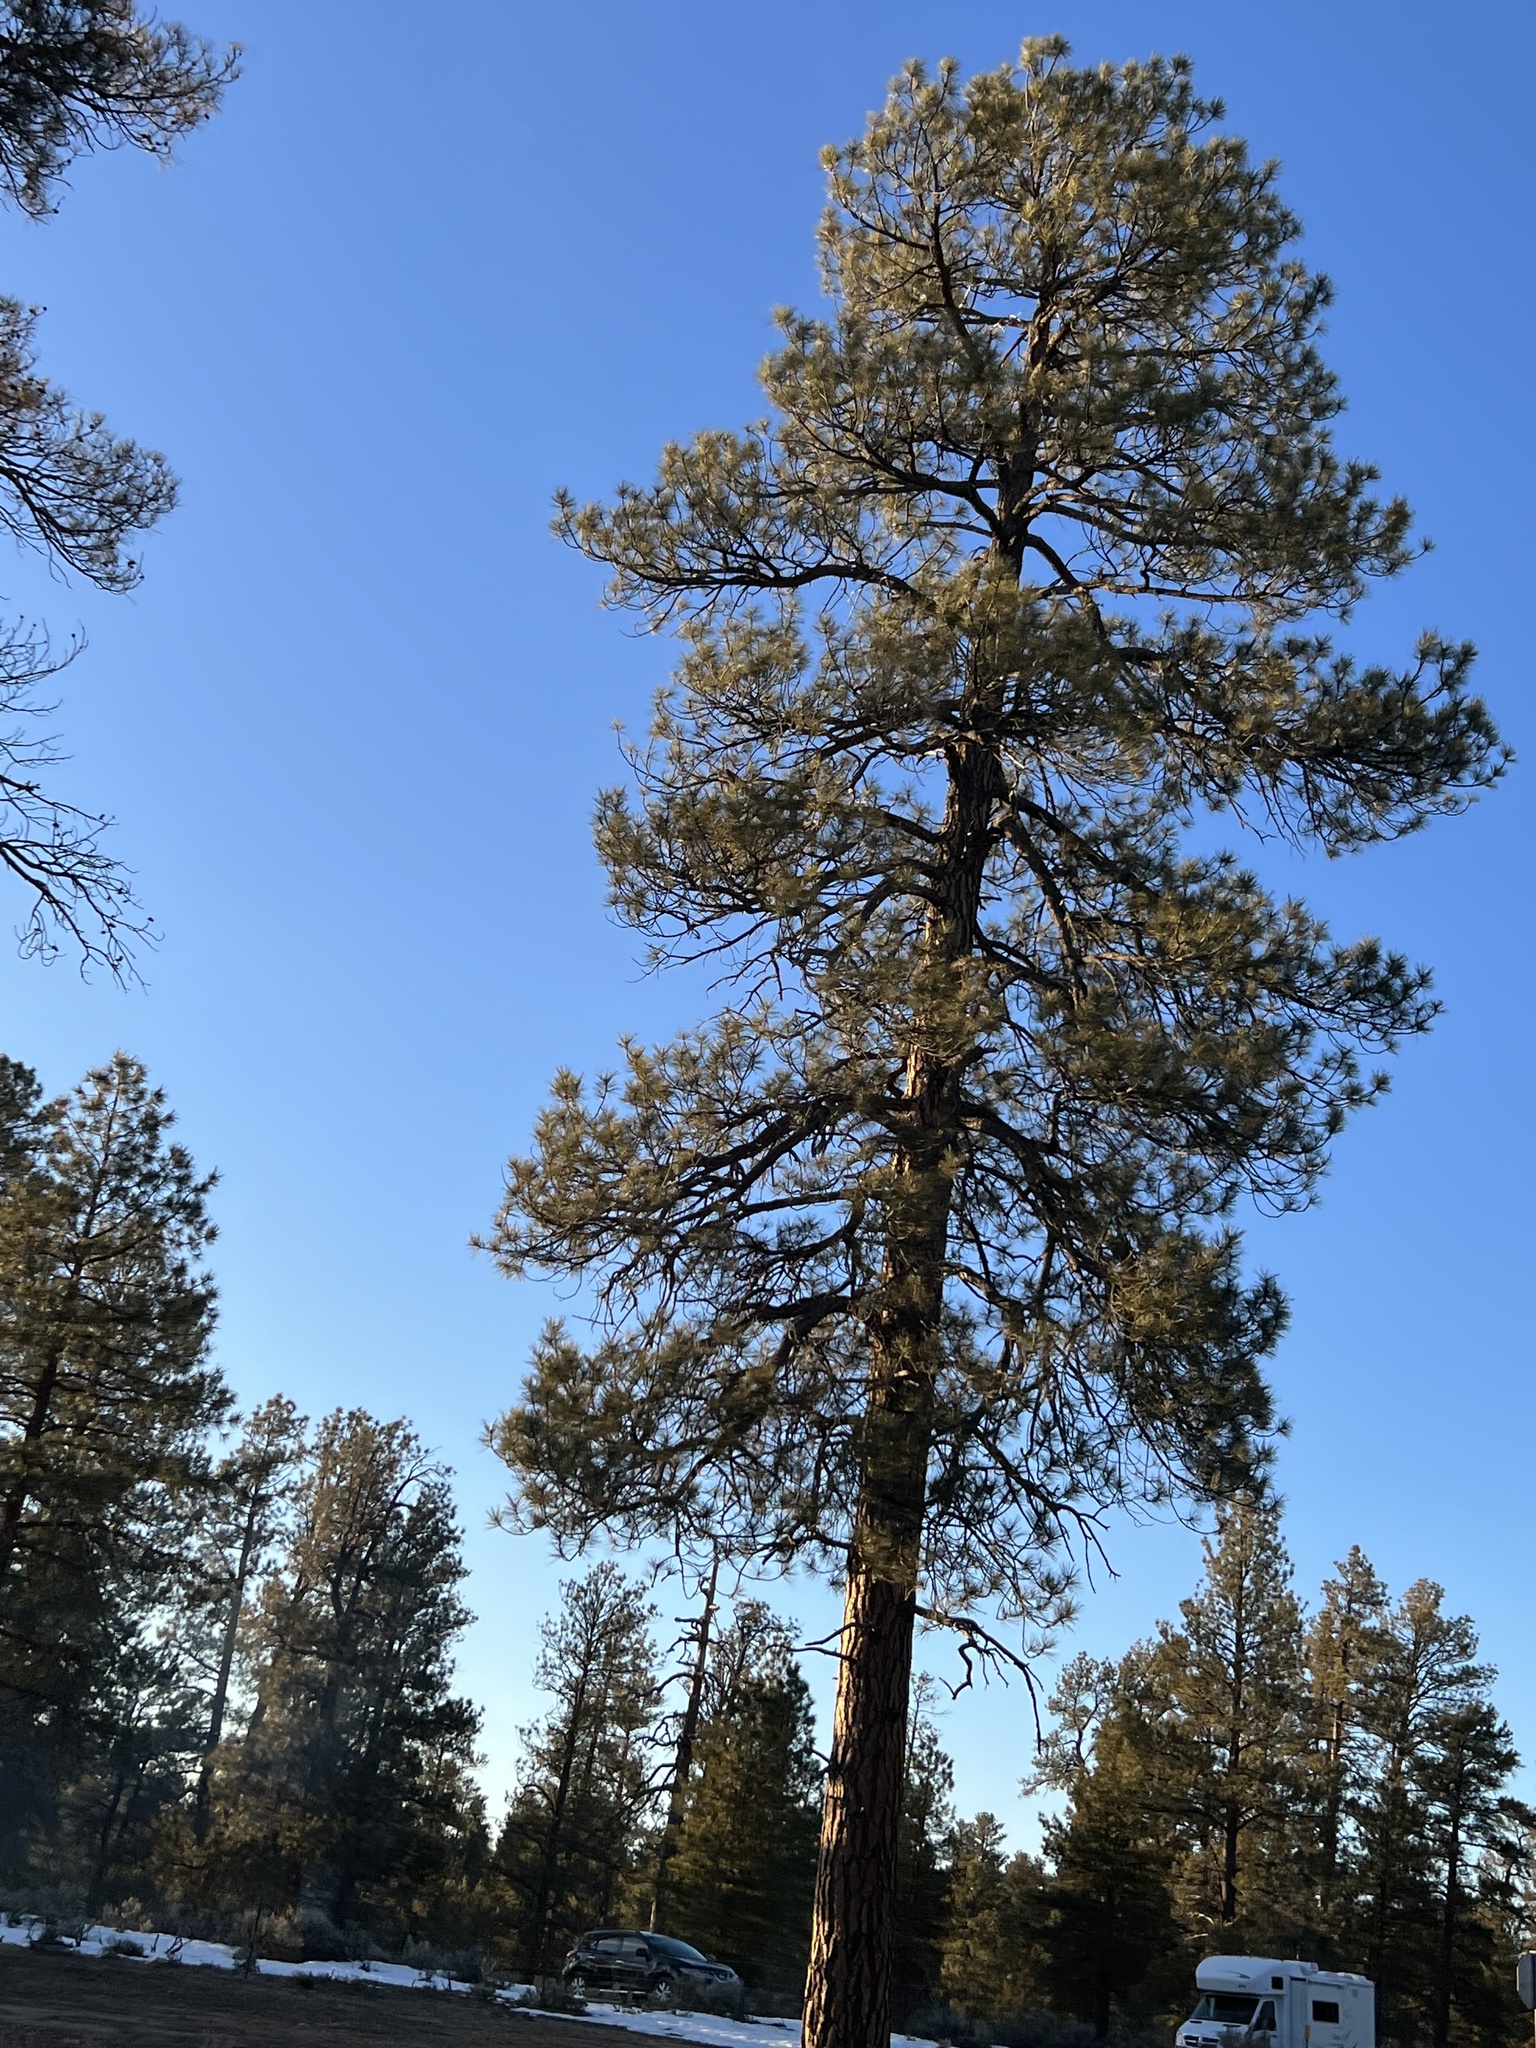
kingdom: Plantae
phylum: Tracheophyta
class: Pinopsida
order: Pinales
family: Pinaceae
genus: Pinus
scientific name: Pinus ponderosa
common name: Western yellow-pine
